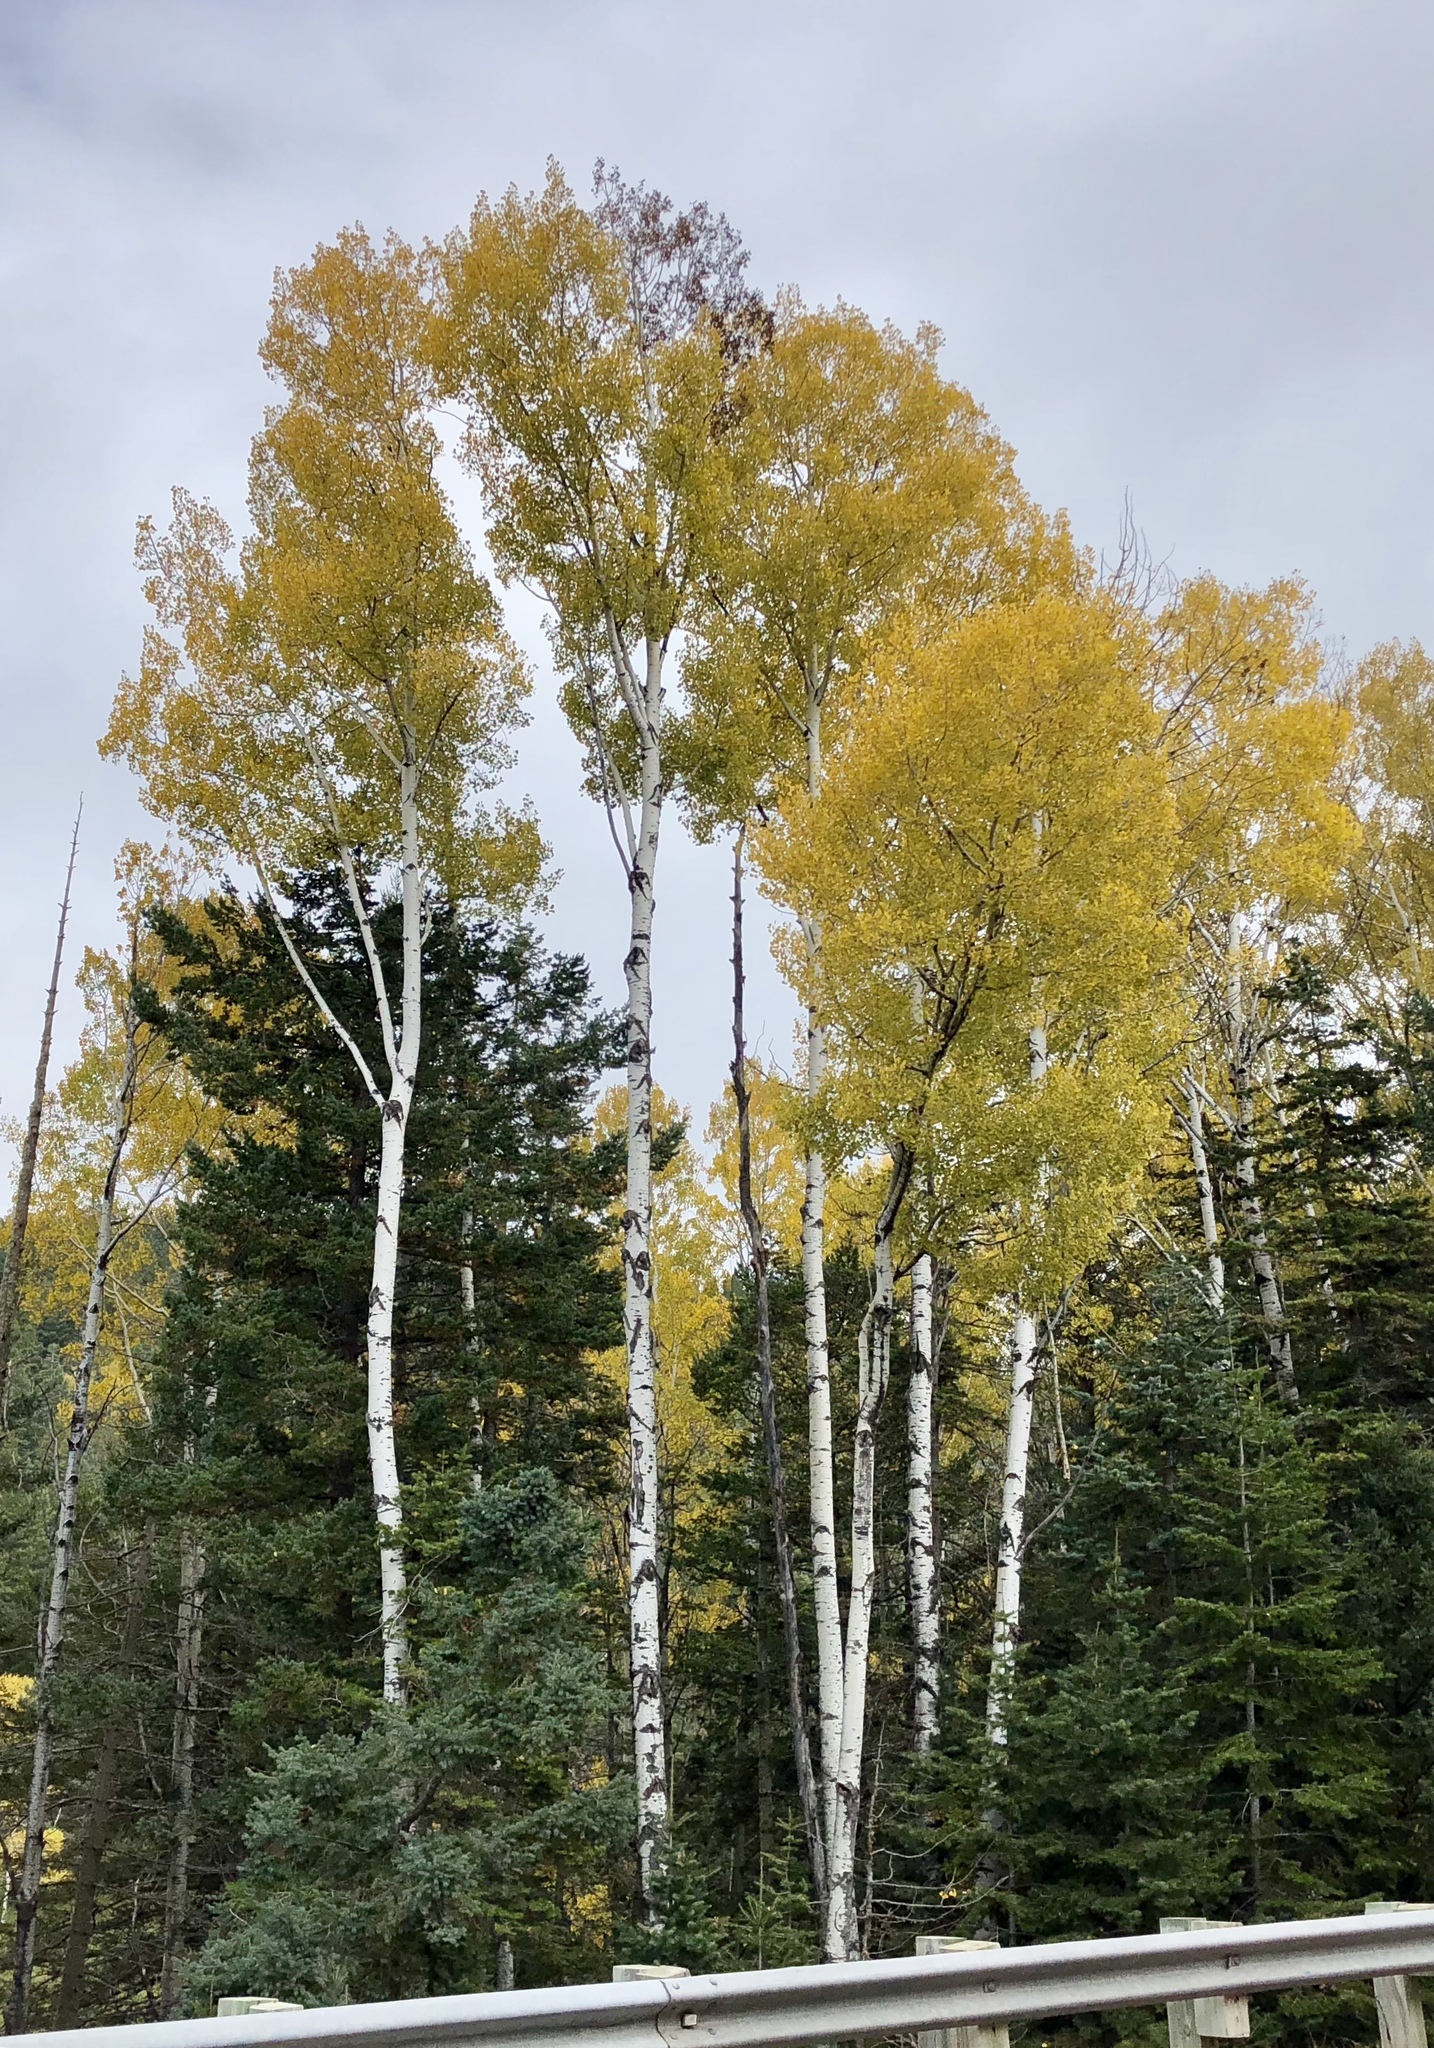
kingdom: Plantae
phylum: Tracheophyta
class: Magnoliopsida
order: Malpighiales
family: Salicaceae
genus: Populus
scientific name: Populus tremuloides
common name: Quaking aspen
